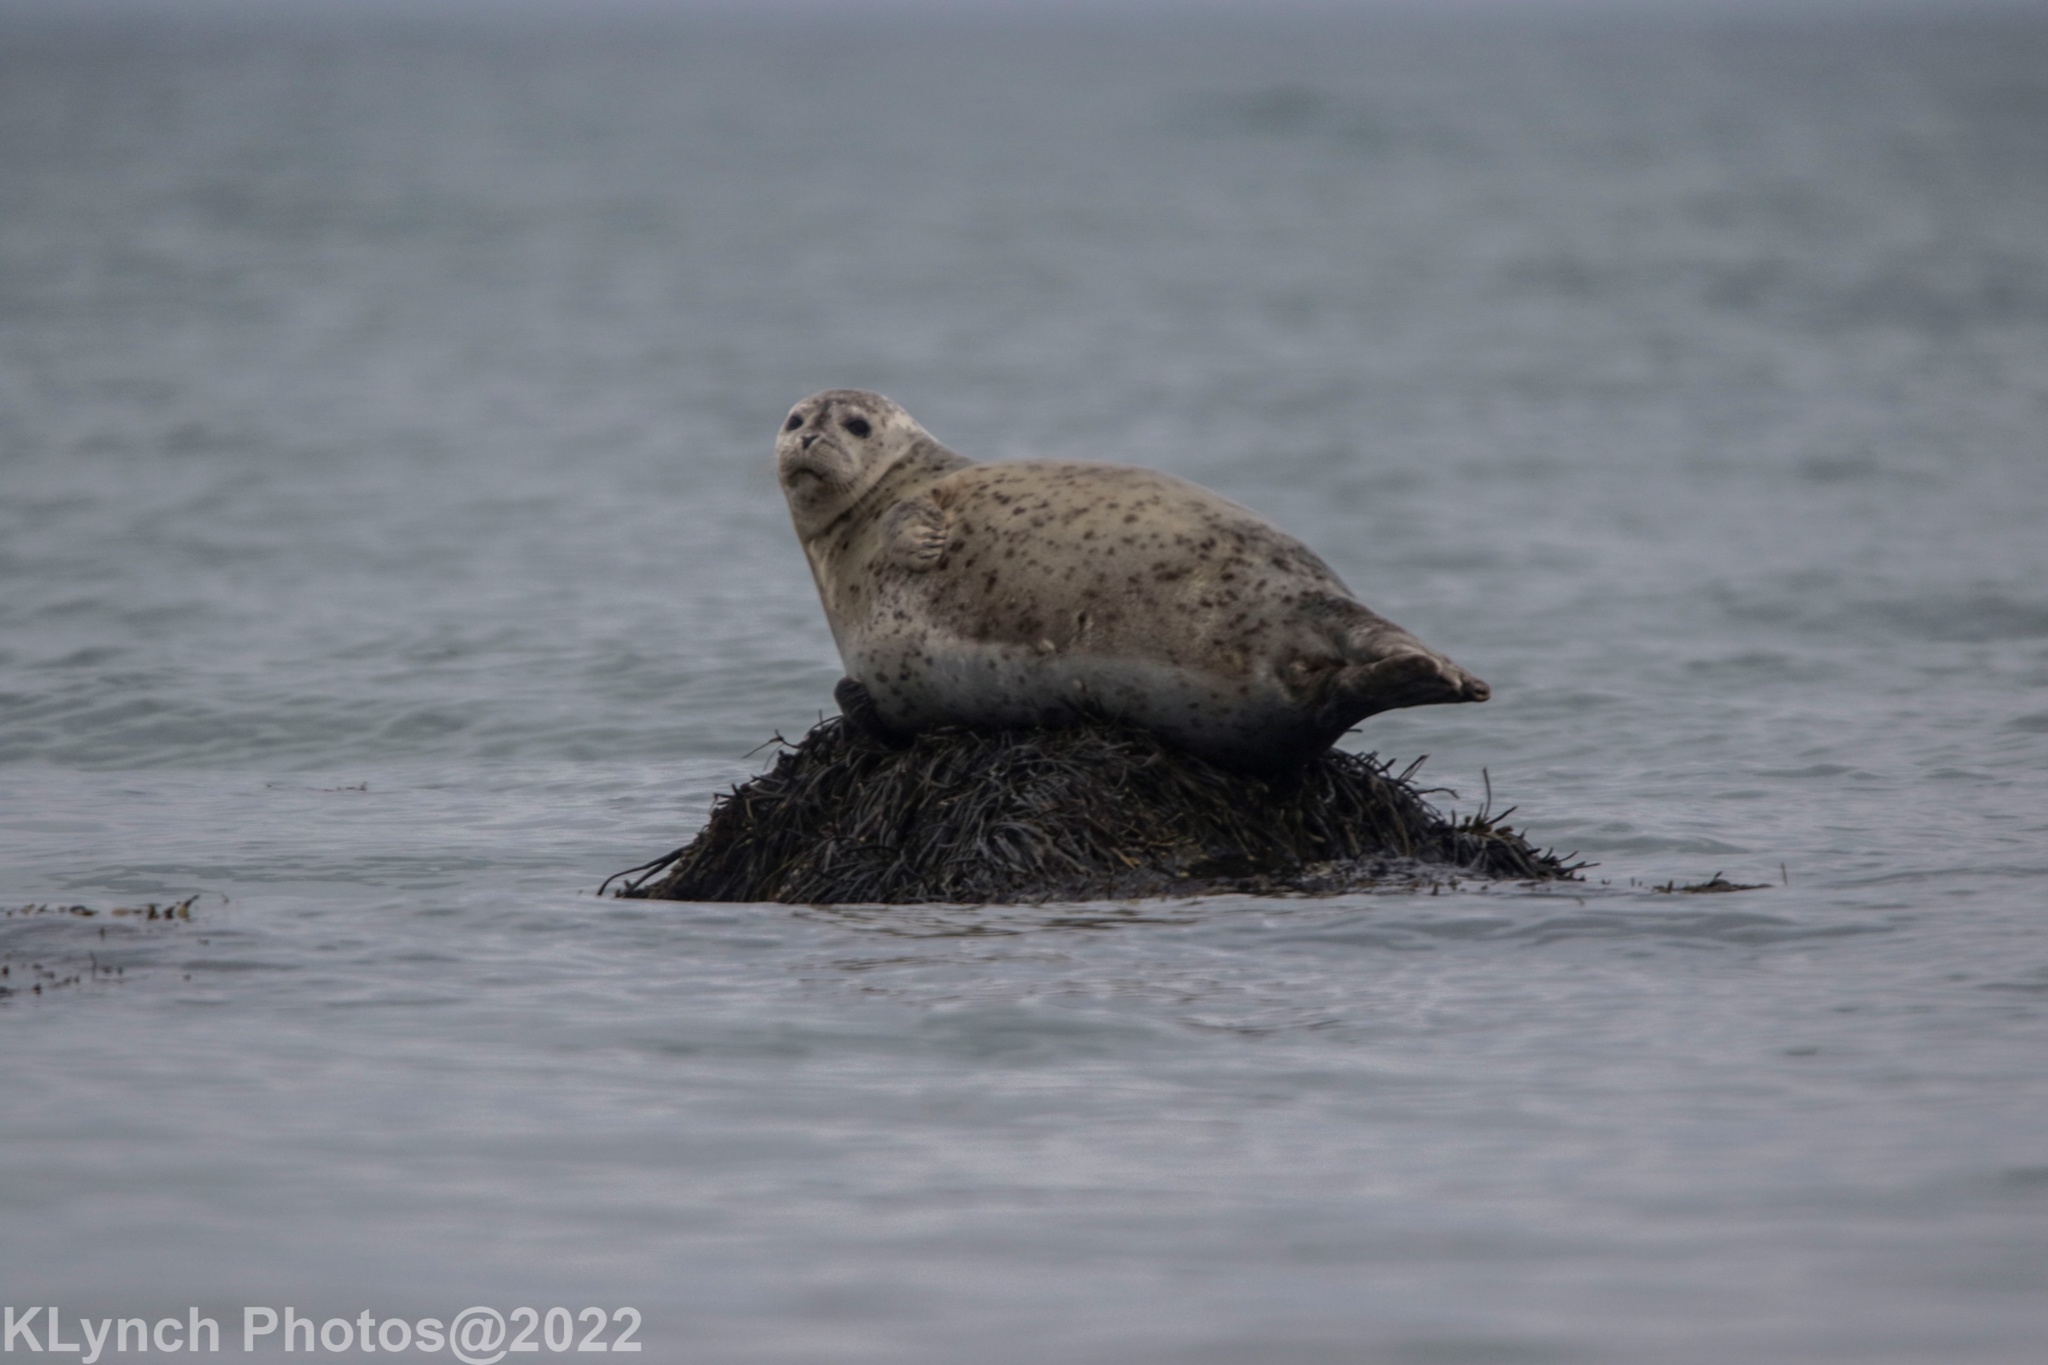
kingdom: Animalia
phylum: Chordata
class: Mammalia
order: Carnivora
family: Phocidae
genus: Phoca
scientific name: Phoca vitulina
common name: Harbor seal
